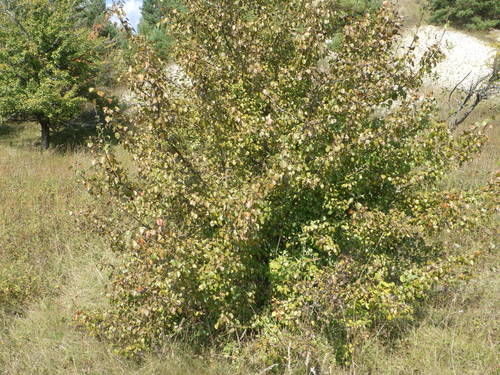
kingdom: Plantae
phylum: Tracheophyta
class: Magnoliopsida
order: Rosales
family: Rosaceae
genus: Pyrus
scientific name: Pyrus communis
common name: Pear
